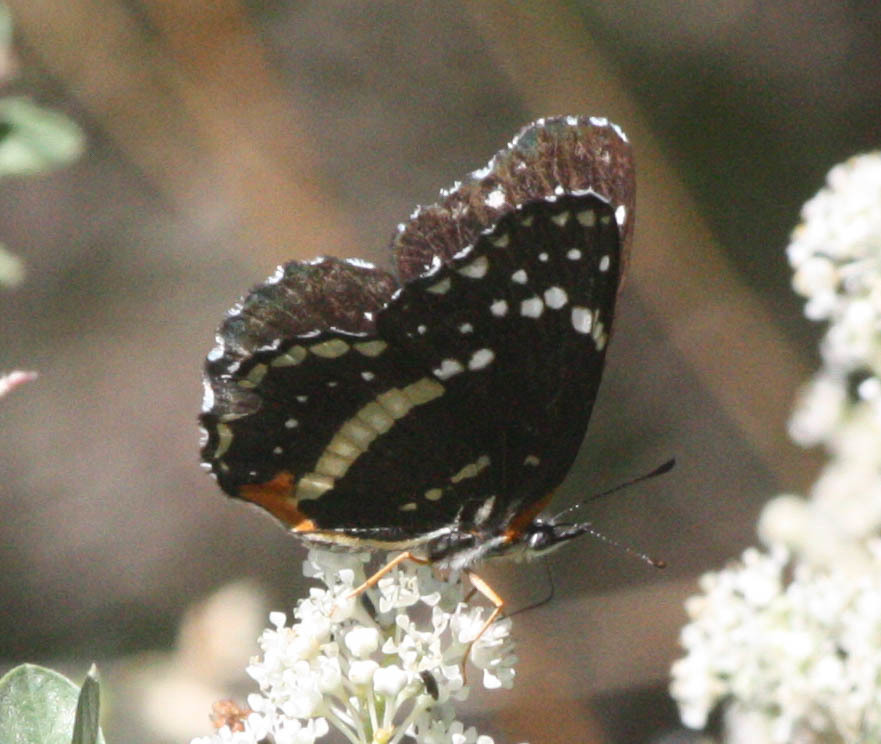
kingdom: Animalia
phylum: Arthropoda
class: Insecta
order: Lepidoptera
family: Nymphalidae
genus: Chlosyne
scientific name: Chlosyne lacinia
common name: Bordered patch
